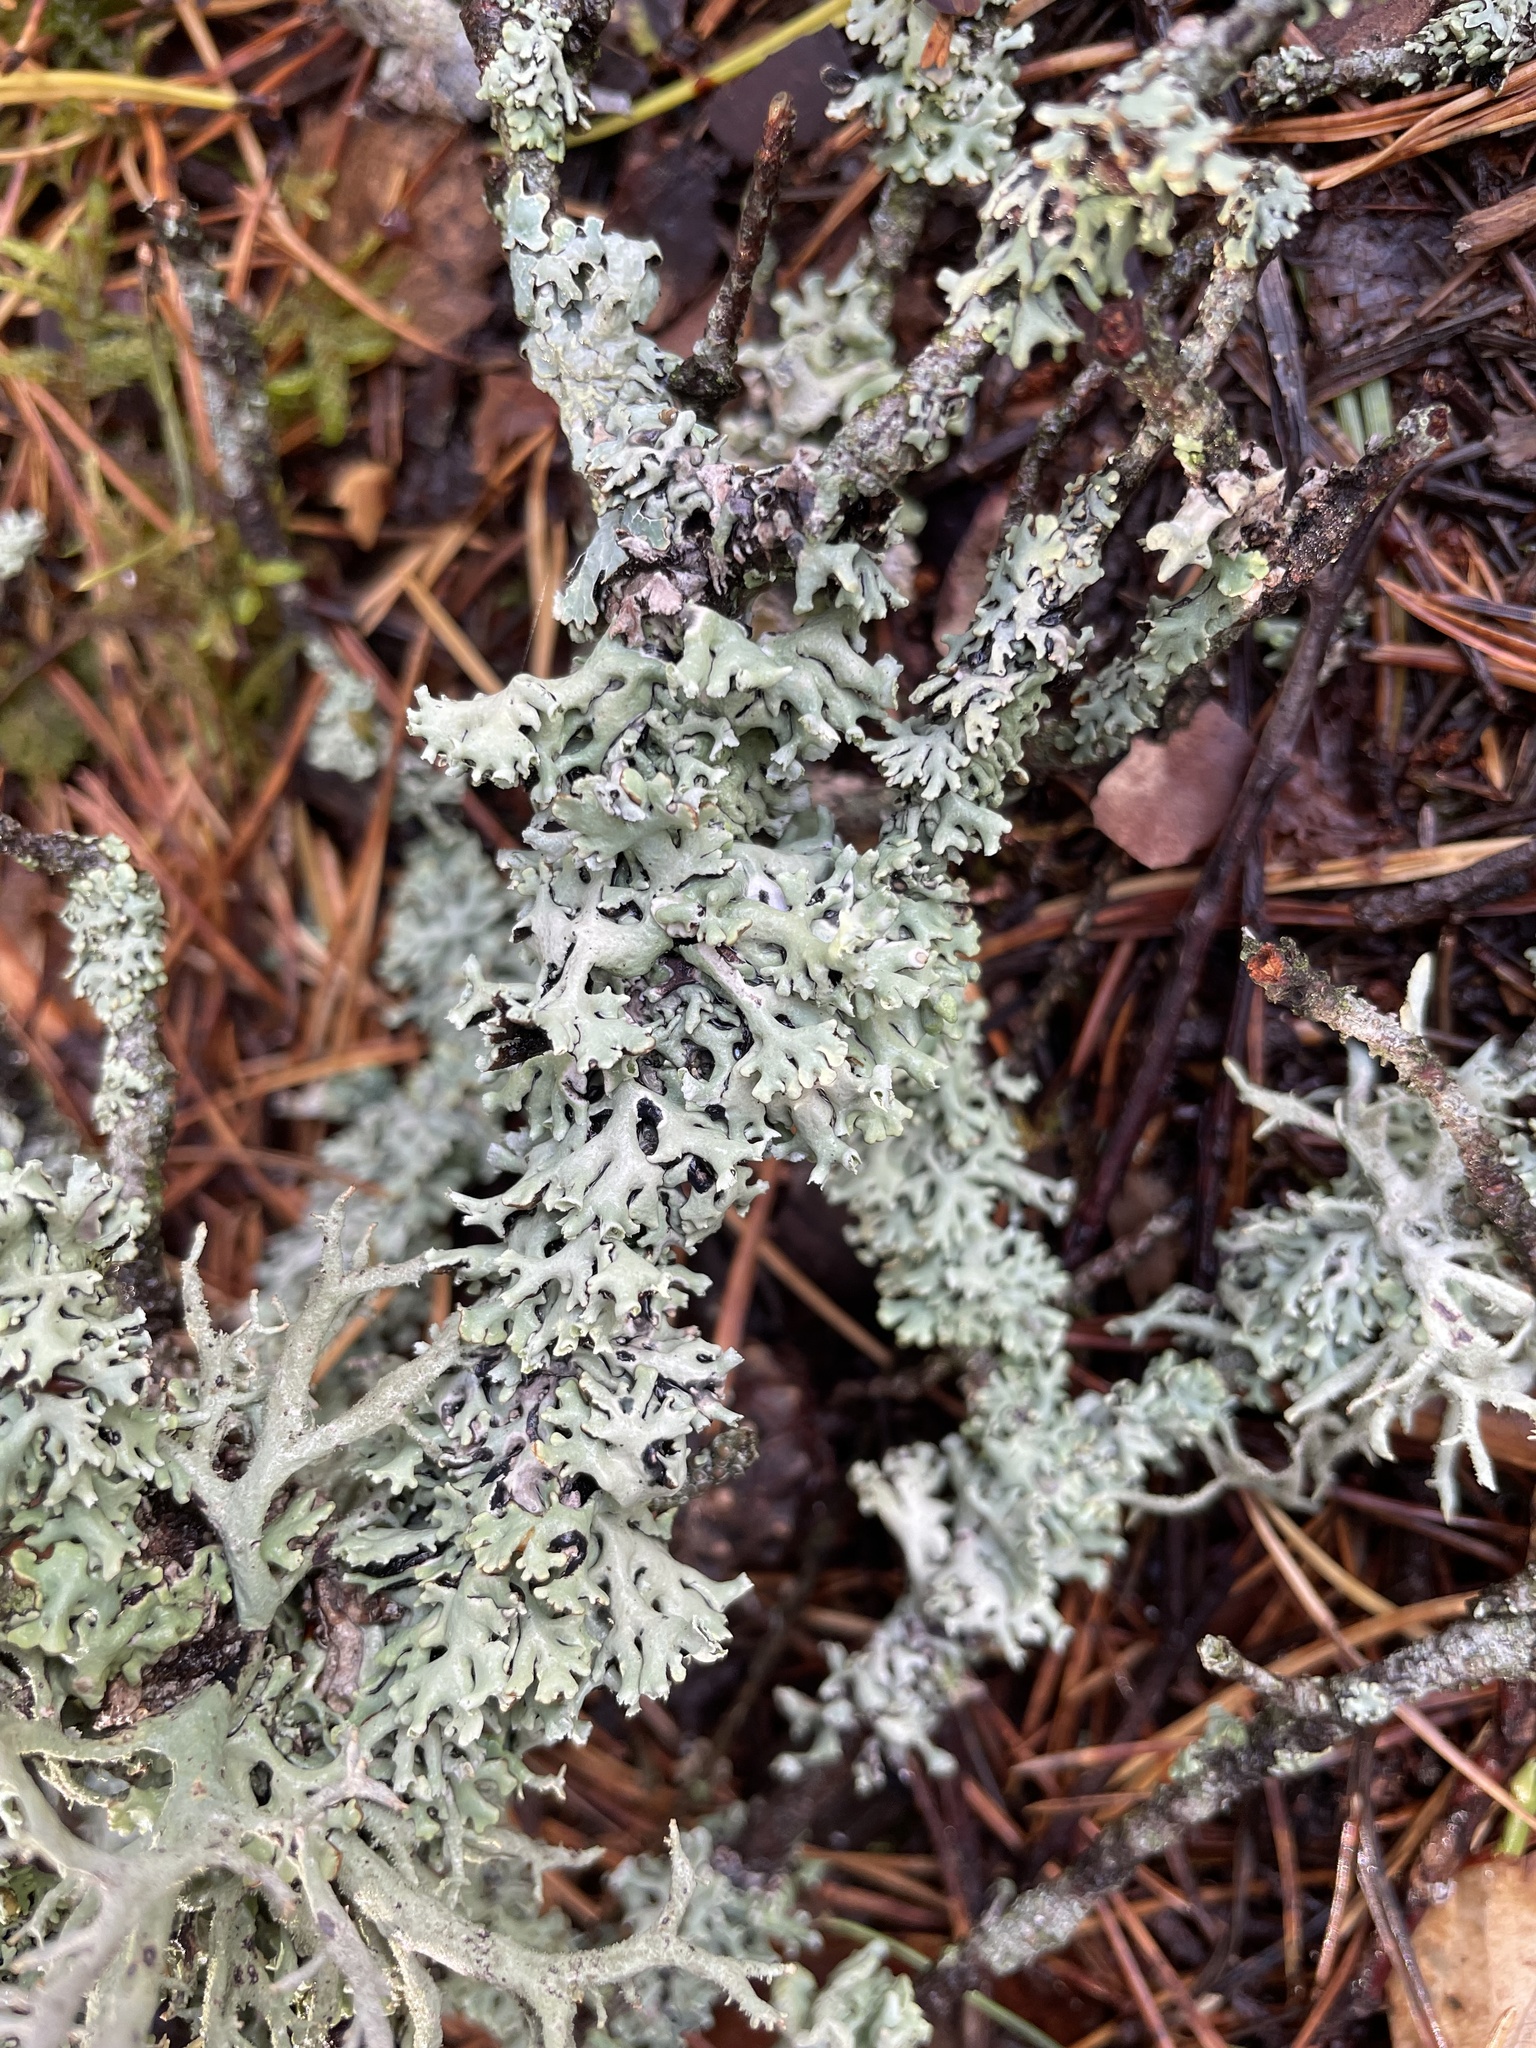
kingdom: Fungi
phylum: Ascomycota
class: Lecanoromycetes
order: Lecanorales
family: Parmeliaceae
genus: Hypogymnia
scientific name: Hypogymnia physodes
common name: Dark crottle
